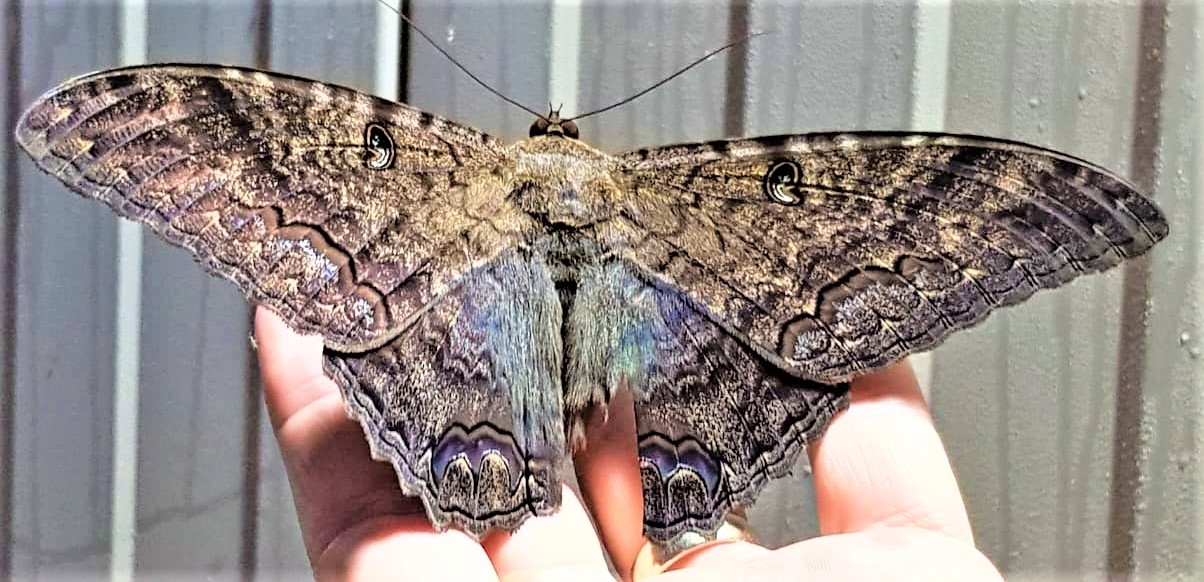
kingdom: Animalia
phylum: Arthropoda
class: Insecta
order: Lepidoptera
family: Erebidae
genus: Ascalapha
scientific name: Ascalapha odorata
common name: Black witch
